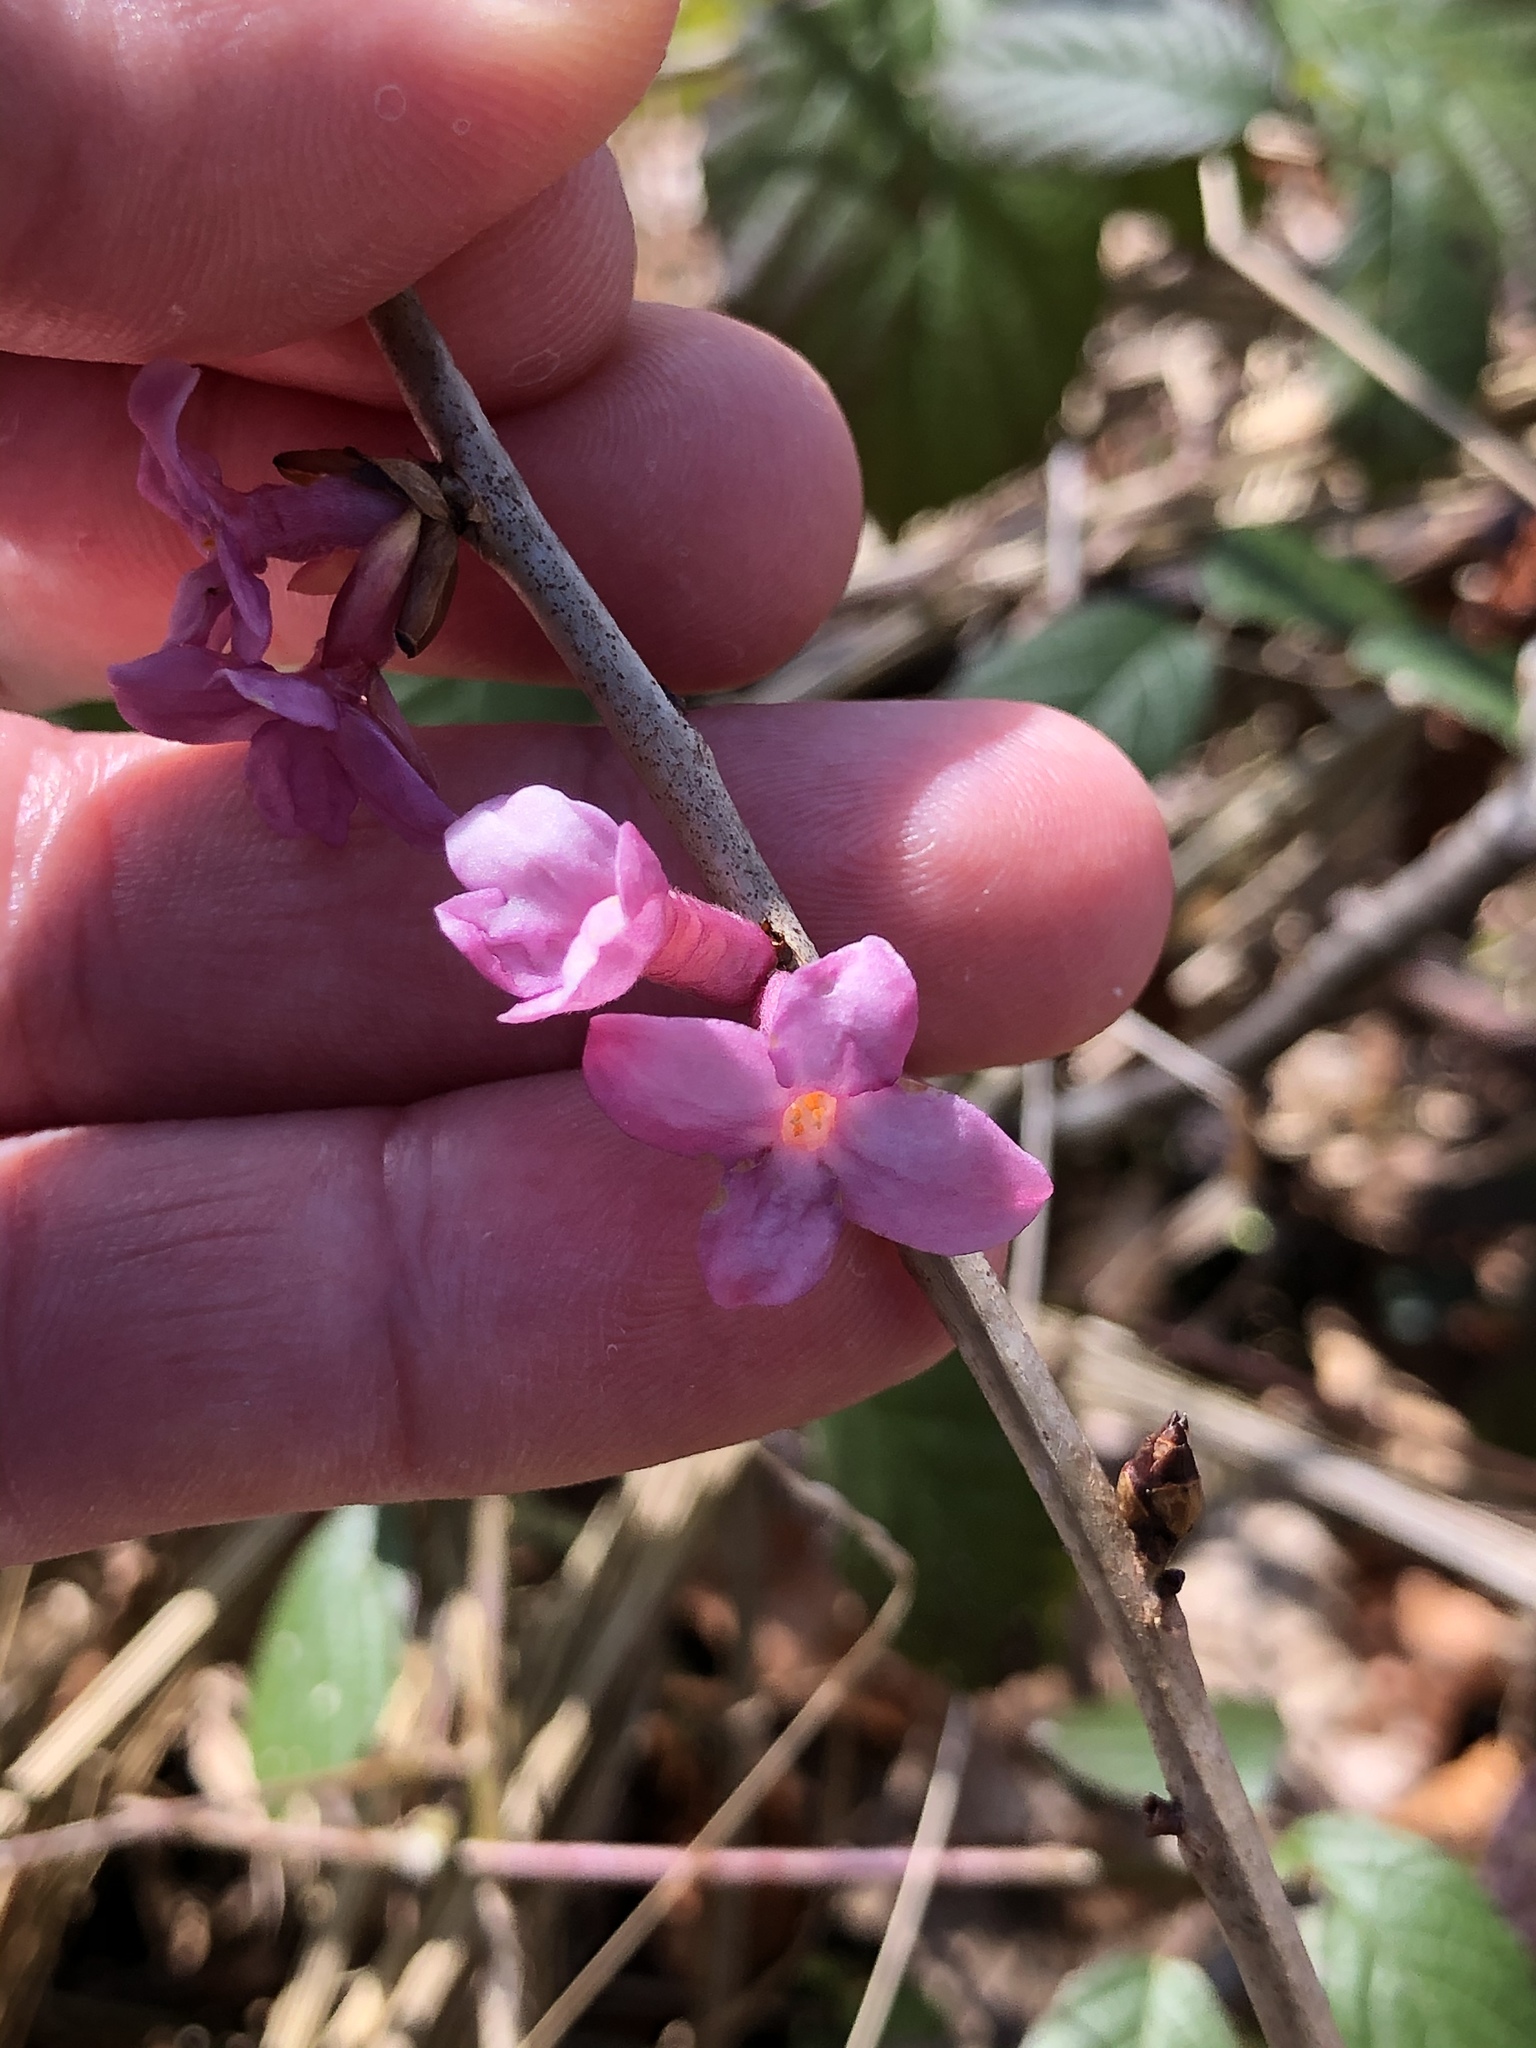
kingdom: Plantae
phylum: Tracheophyta
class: Magnoliopsida
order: Malvales
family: Thymelaeaceae
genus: Daphne
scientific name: Daphne mezereum
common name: Mezereon
